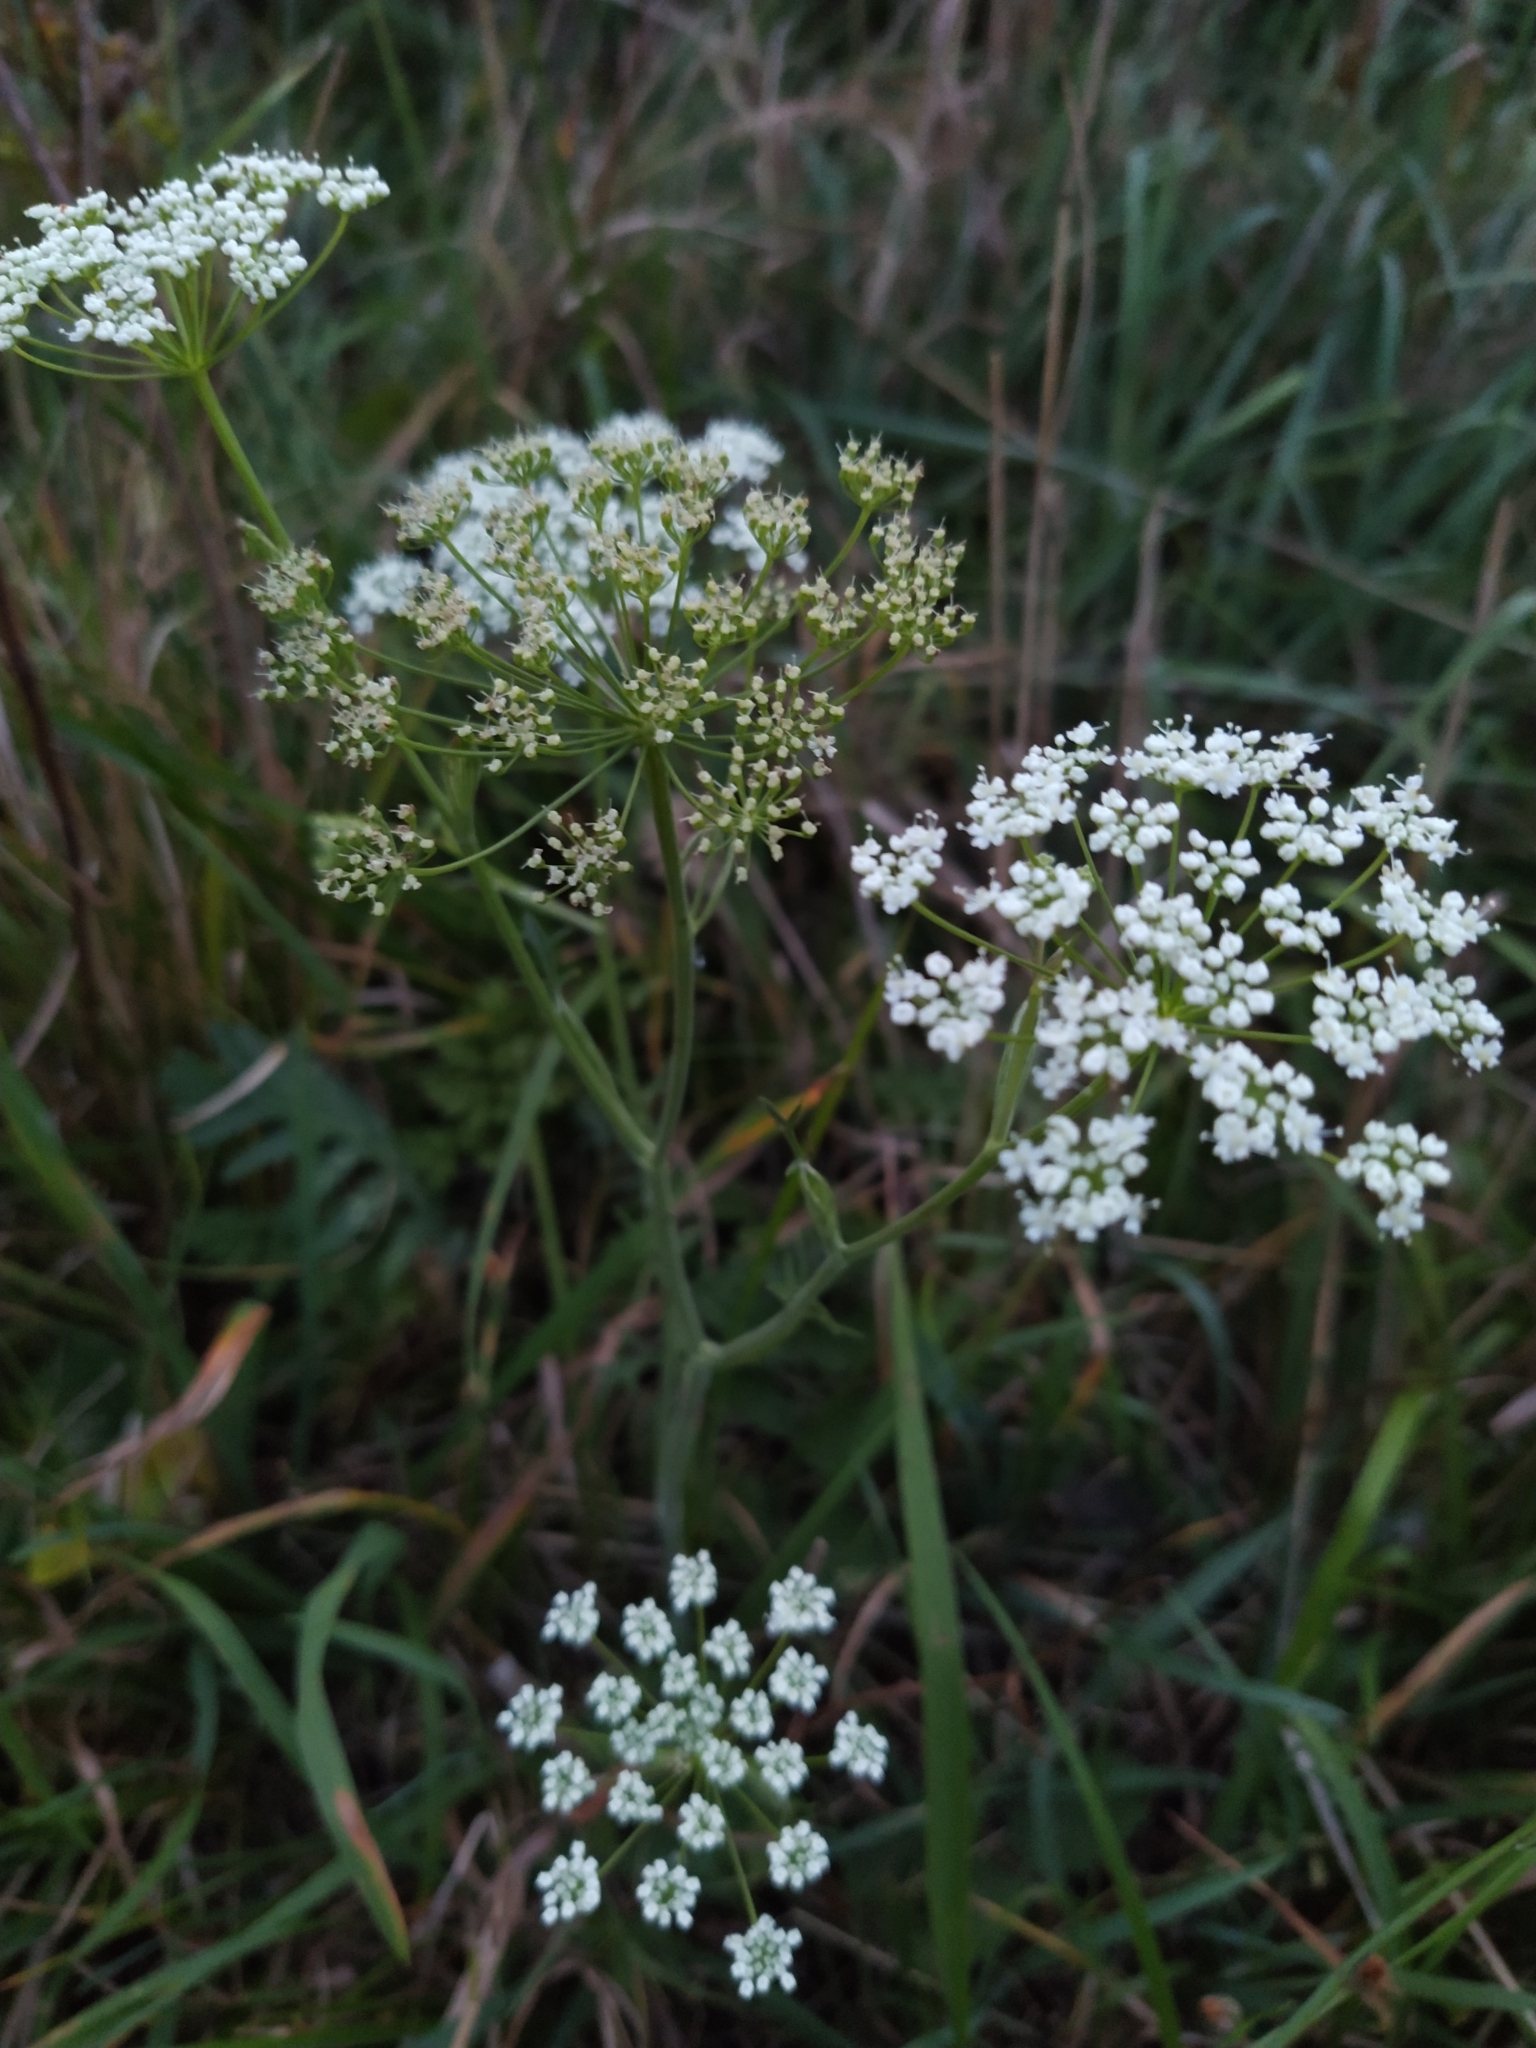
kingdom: Plantae
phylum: Tracheophyta
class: Magnoliopsida
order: Apiales
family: Apiaceae
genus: Pimpinella
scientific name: Pimpinella saxifraga
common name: Burnet-saxifrage
